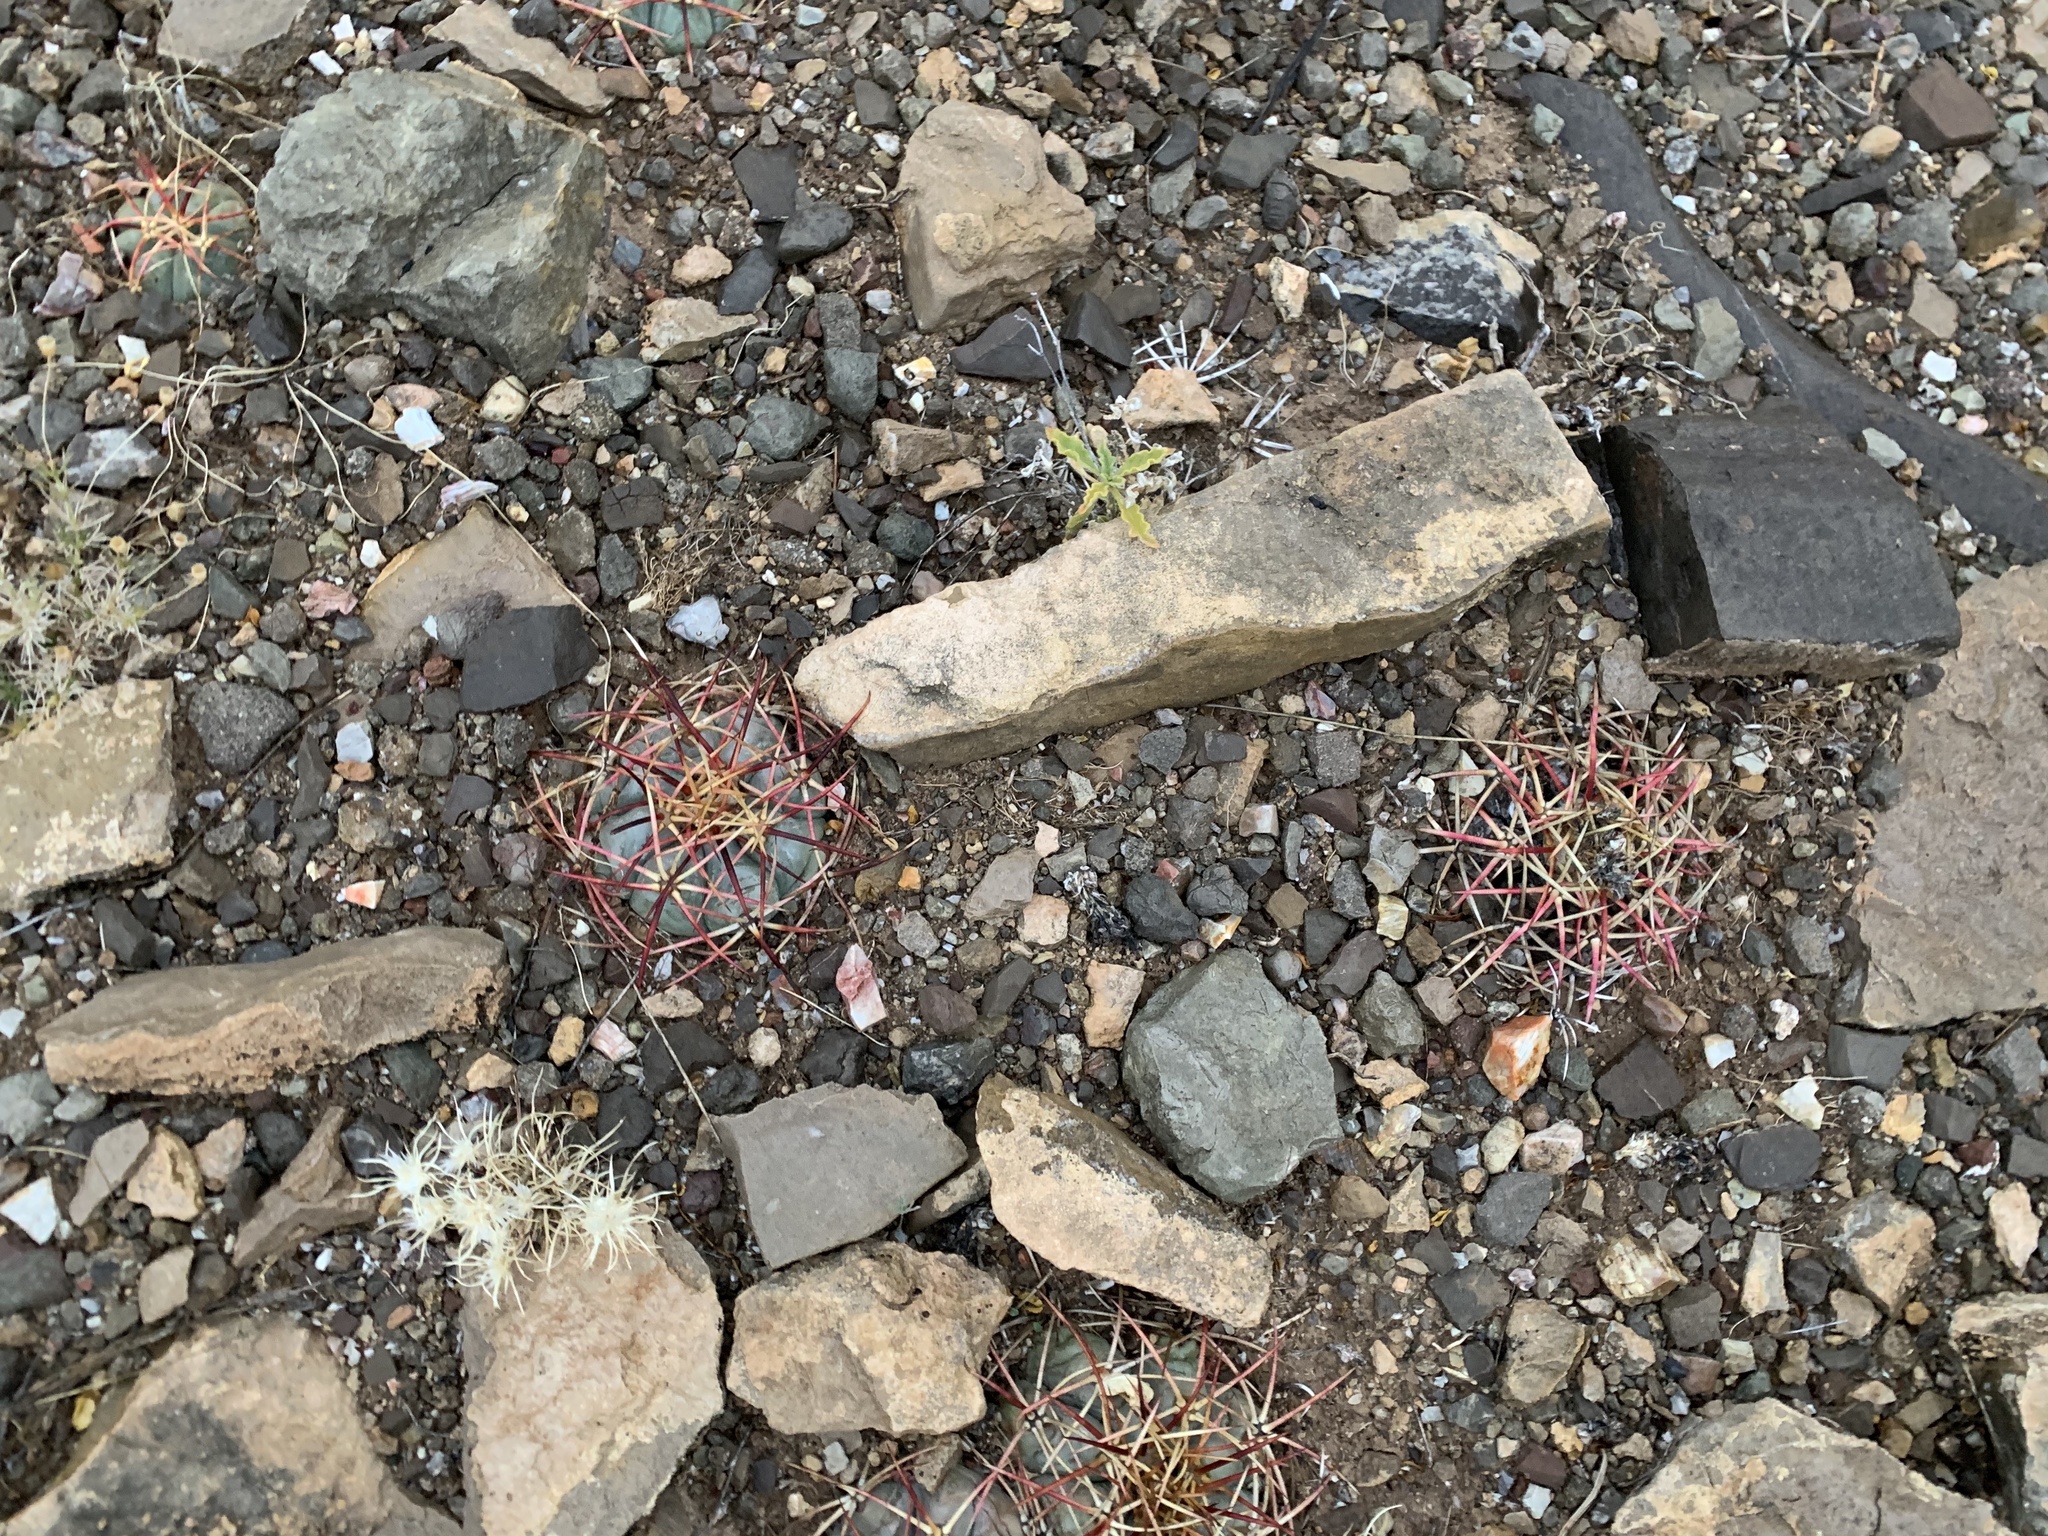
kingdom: Plantae
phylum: Tracheophyta
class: Magnoliopsida
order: Caryophyllales
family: Cactaceae
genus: Echinocactus
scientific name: Echinocactus horizonthalonius
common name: Devilshead
